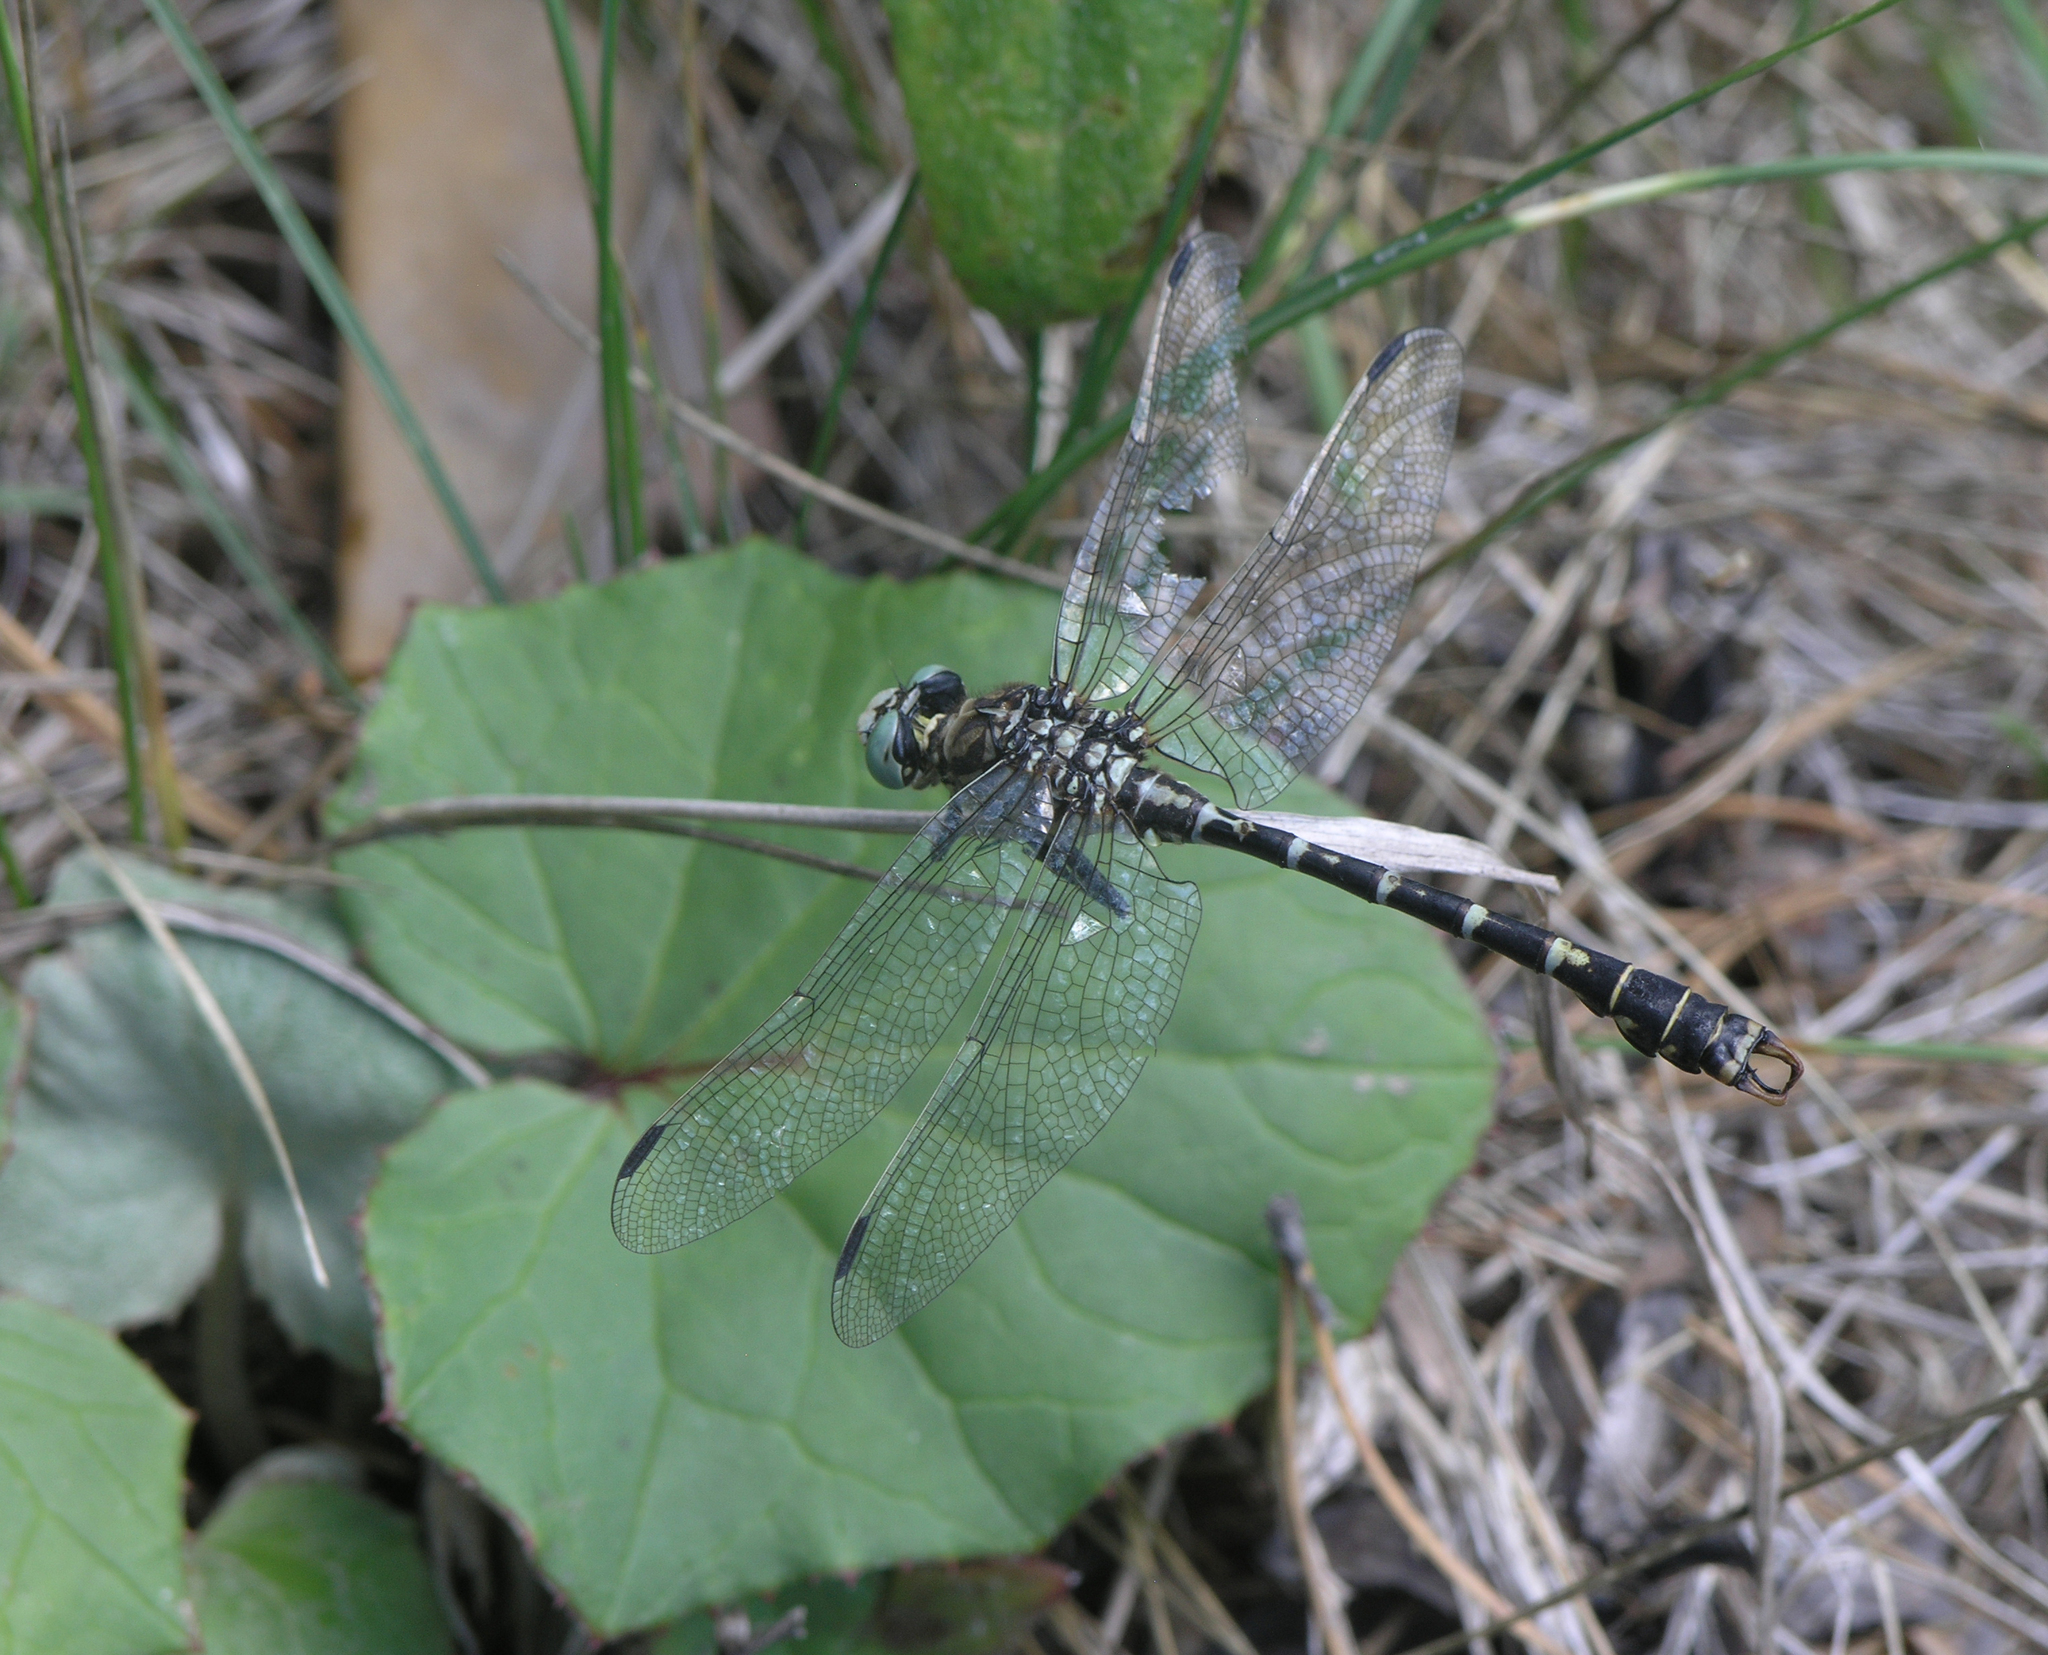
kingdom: Animalia
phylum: Arthropoda
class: Insecta
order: Odonata
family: Gomphidae
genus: Onychogomphus
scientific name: Onychogomphus forcipatus
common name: Small pincertail
